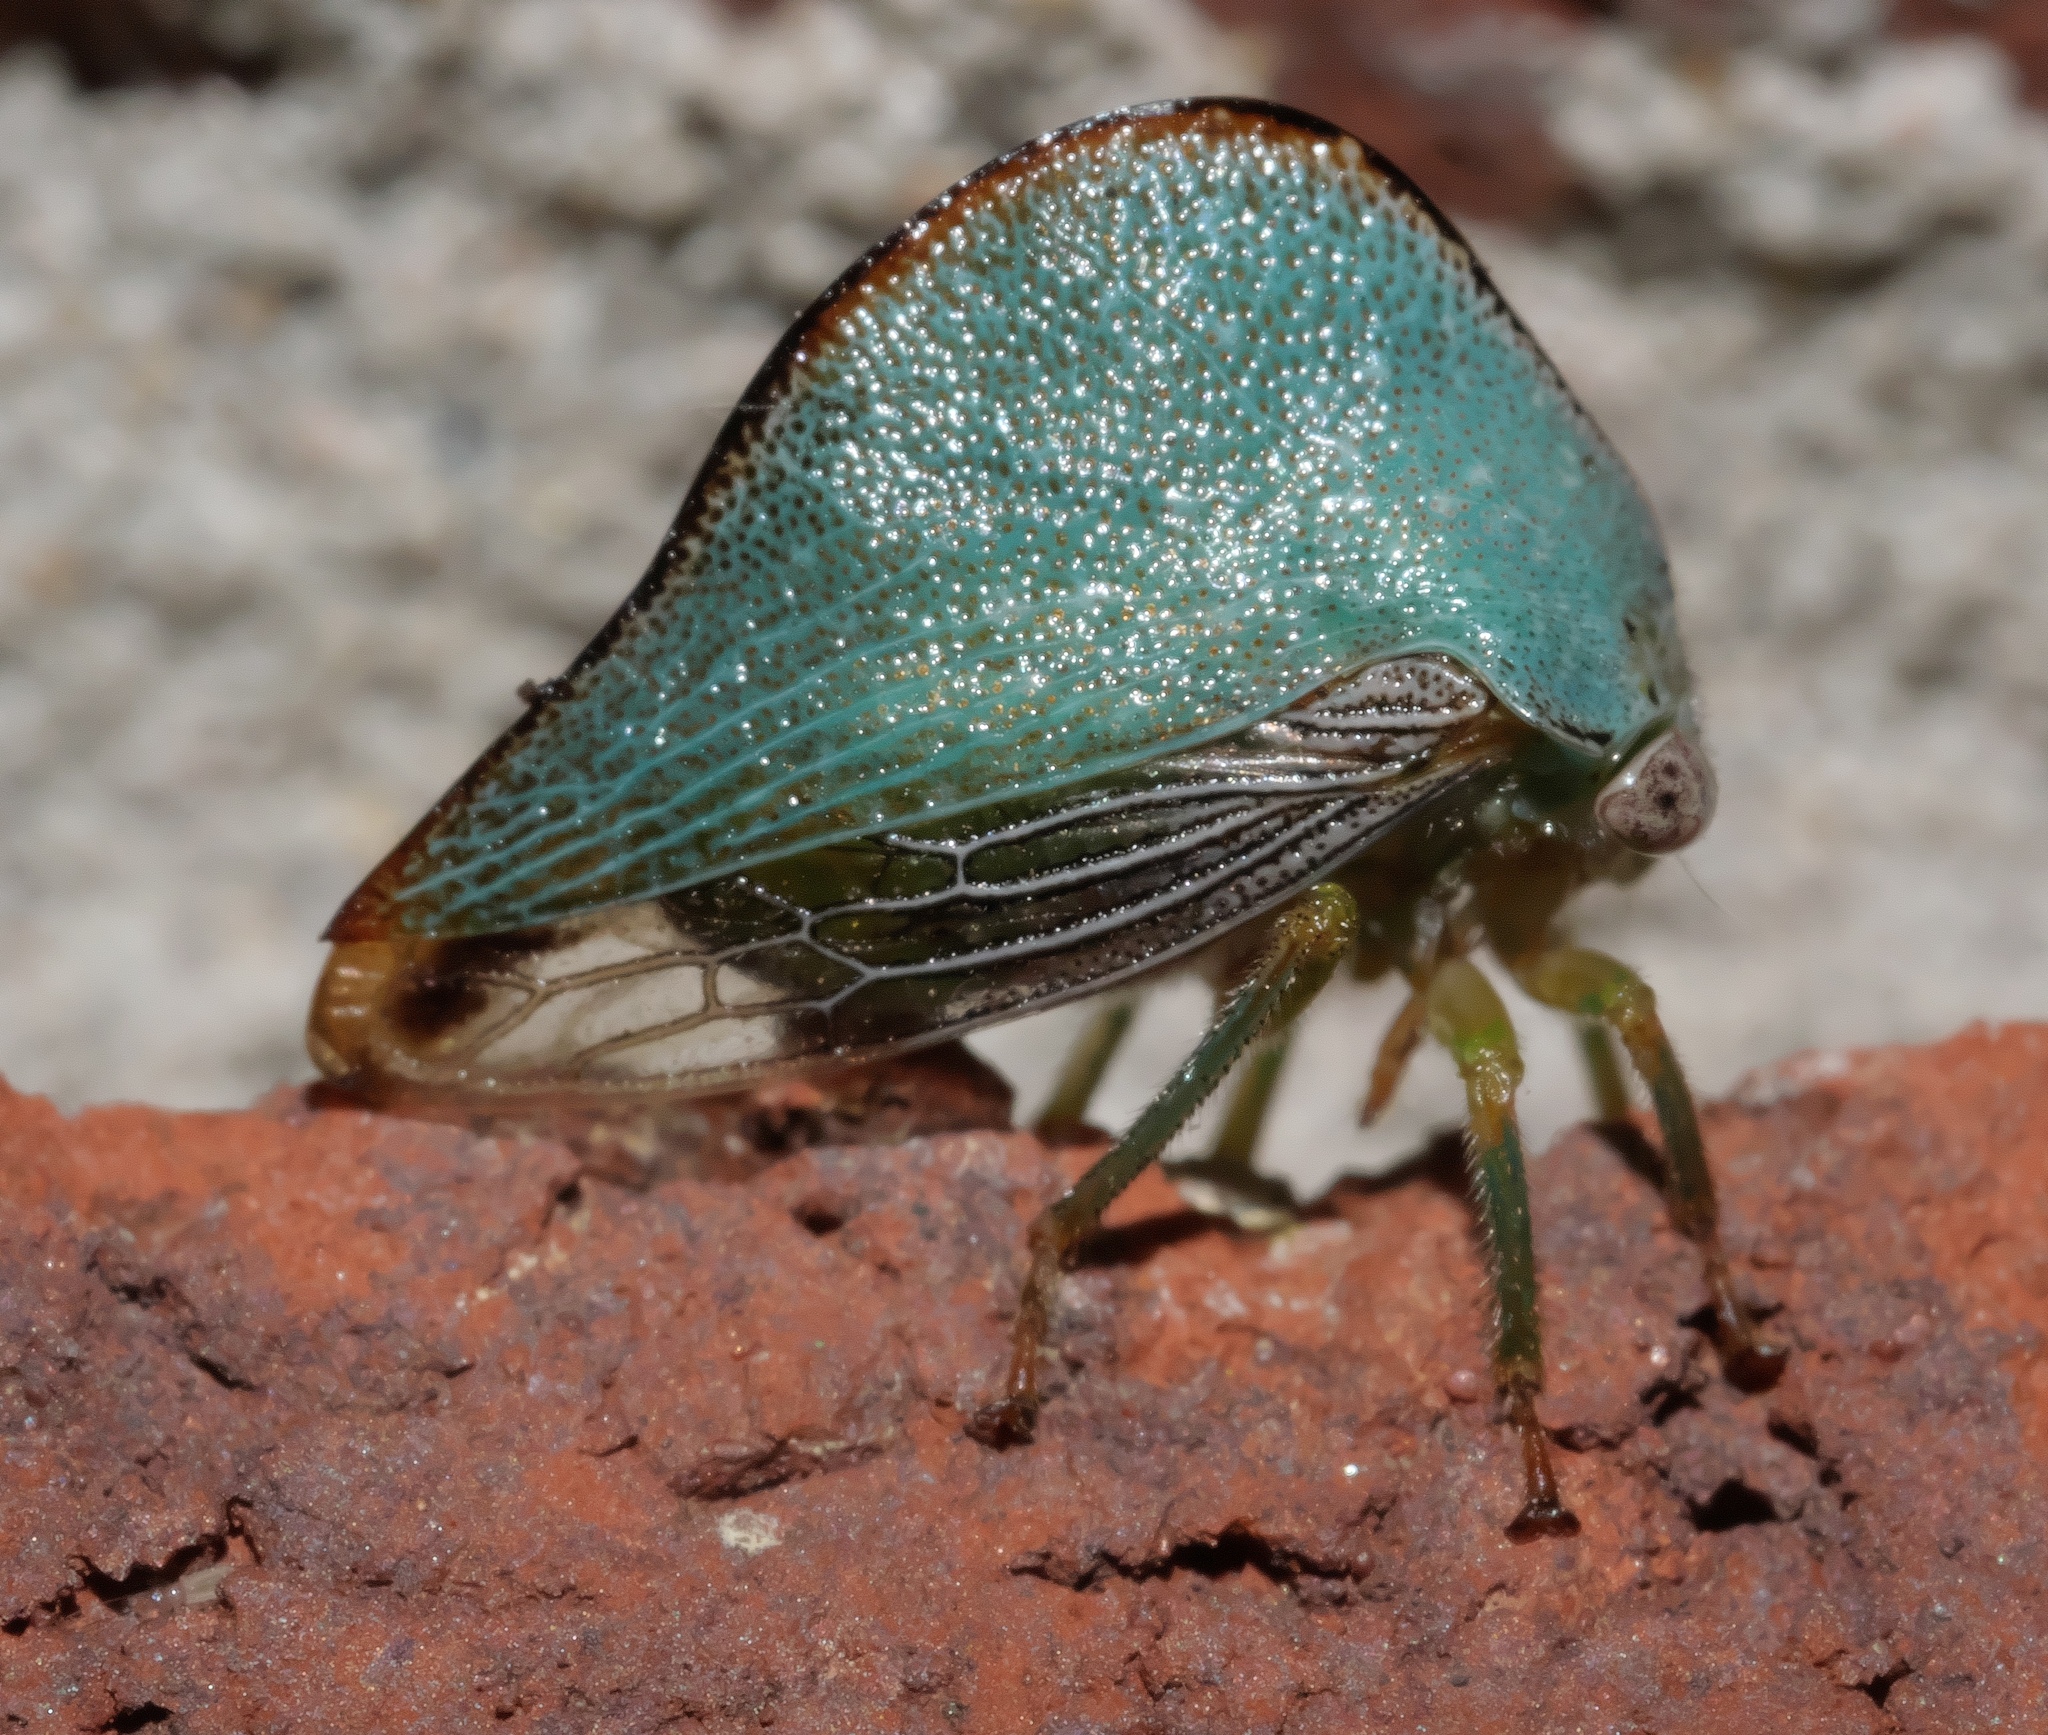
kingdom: Animalia
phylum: Arthropoda
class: Insecta
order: Hemiptera
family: Membracidae
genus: Archasia
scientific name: Archasia pallida
